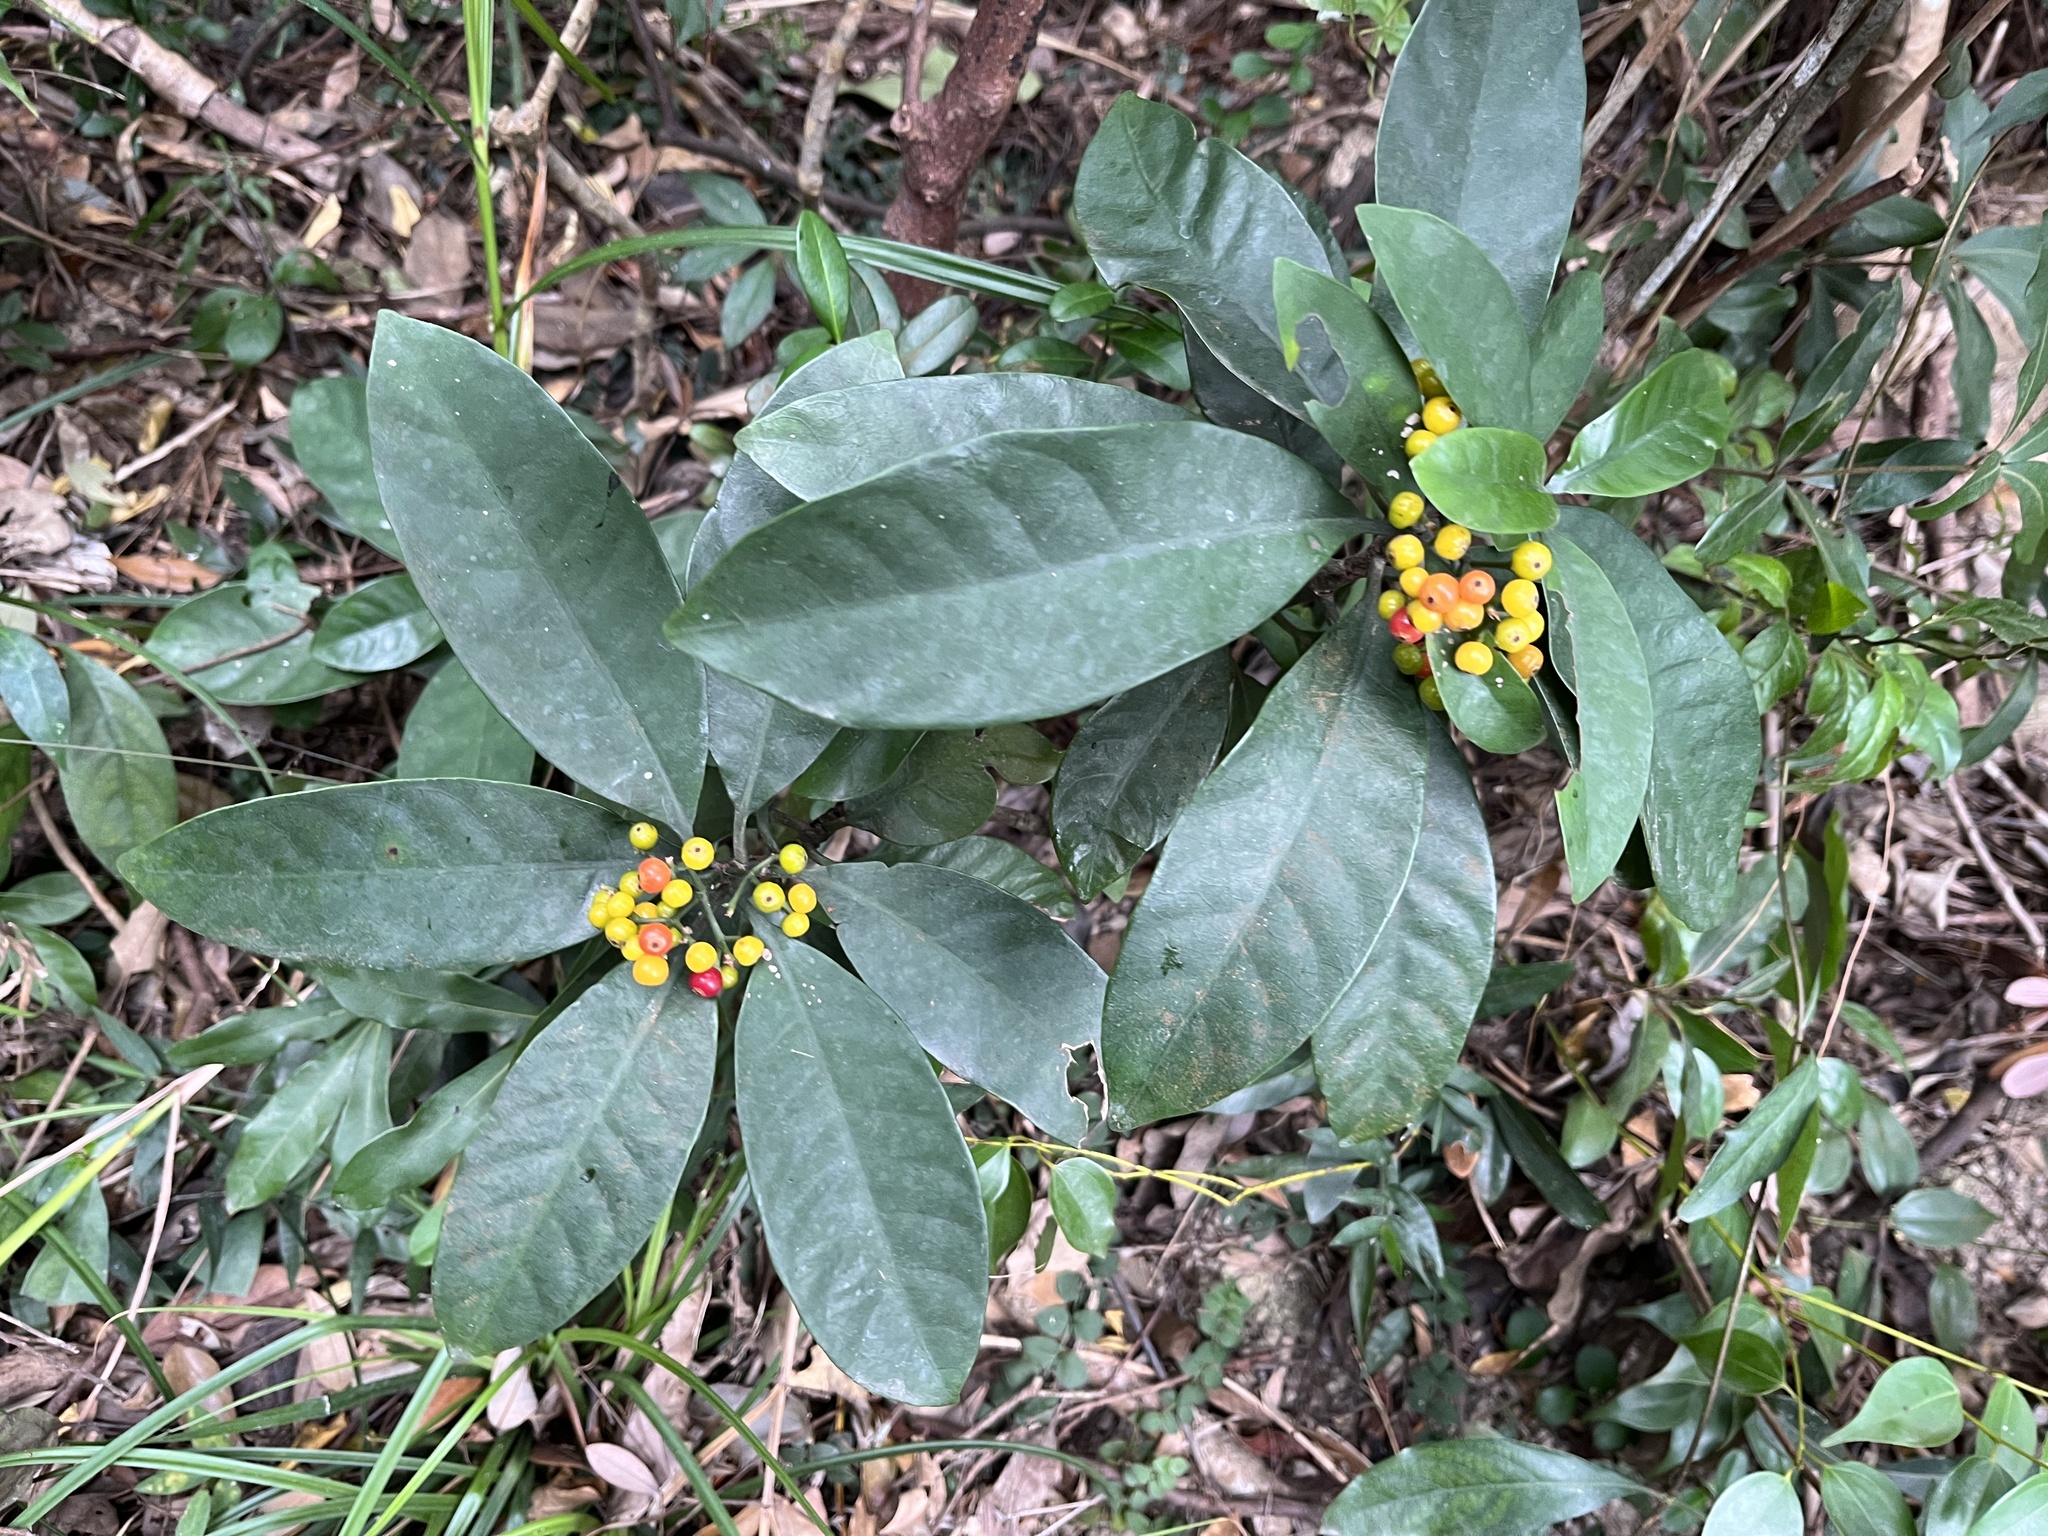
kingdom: Plantae
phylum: Tracheophyta
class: Magnoliopsida
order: Gentianales
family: Rubiaceae
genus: Psychotria
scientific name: Psychotria asiatica
